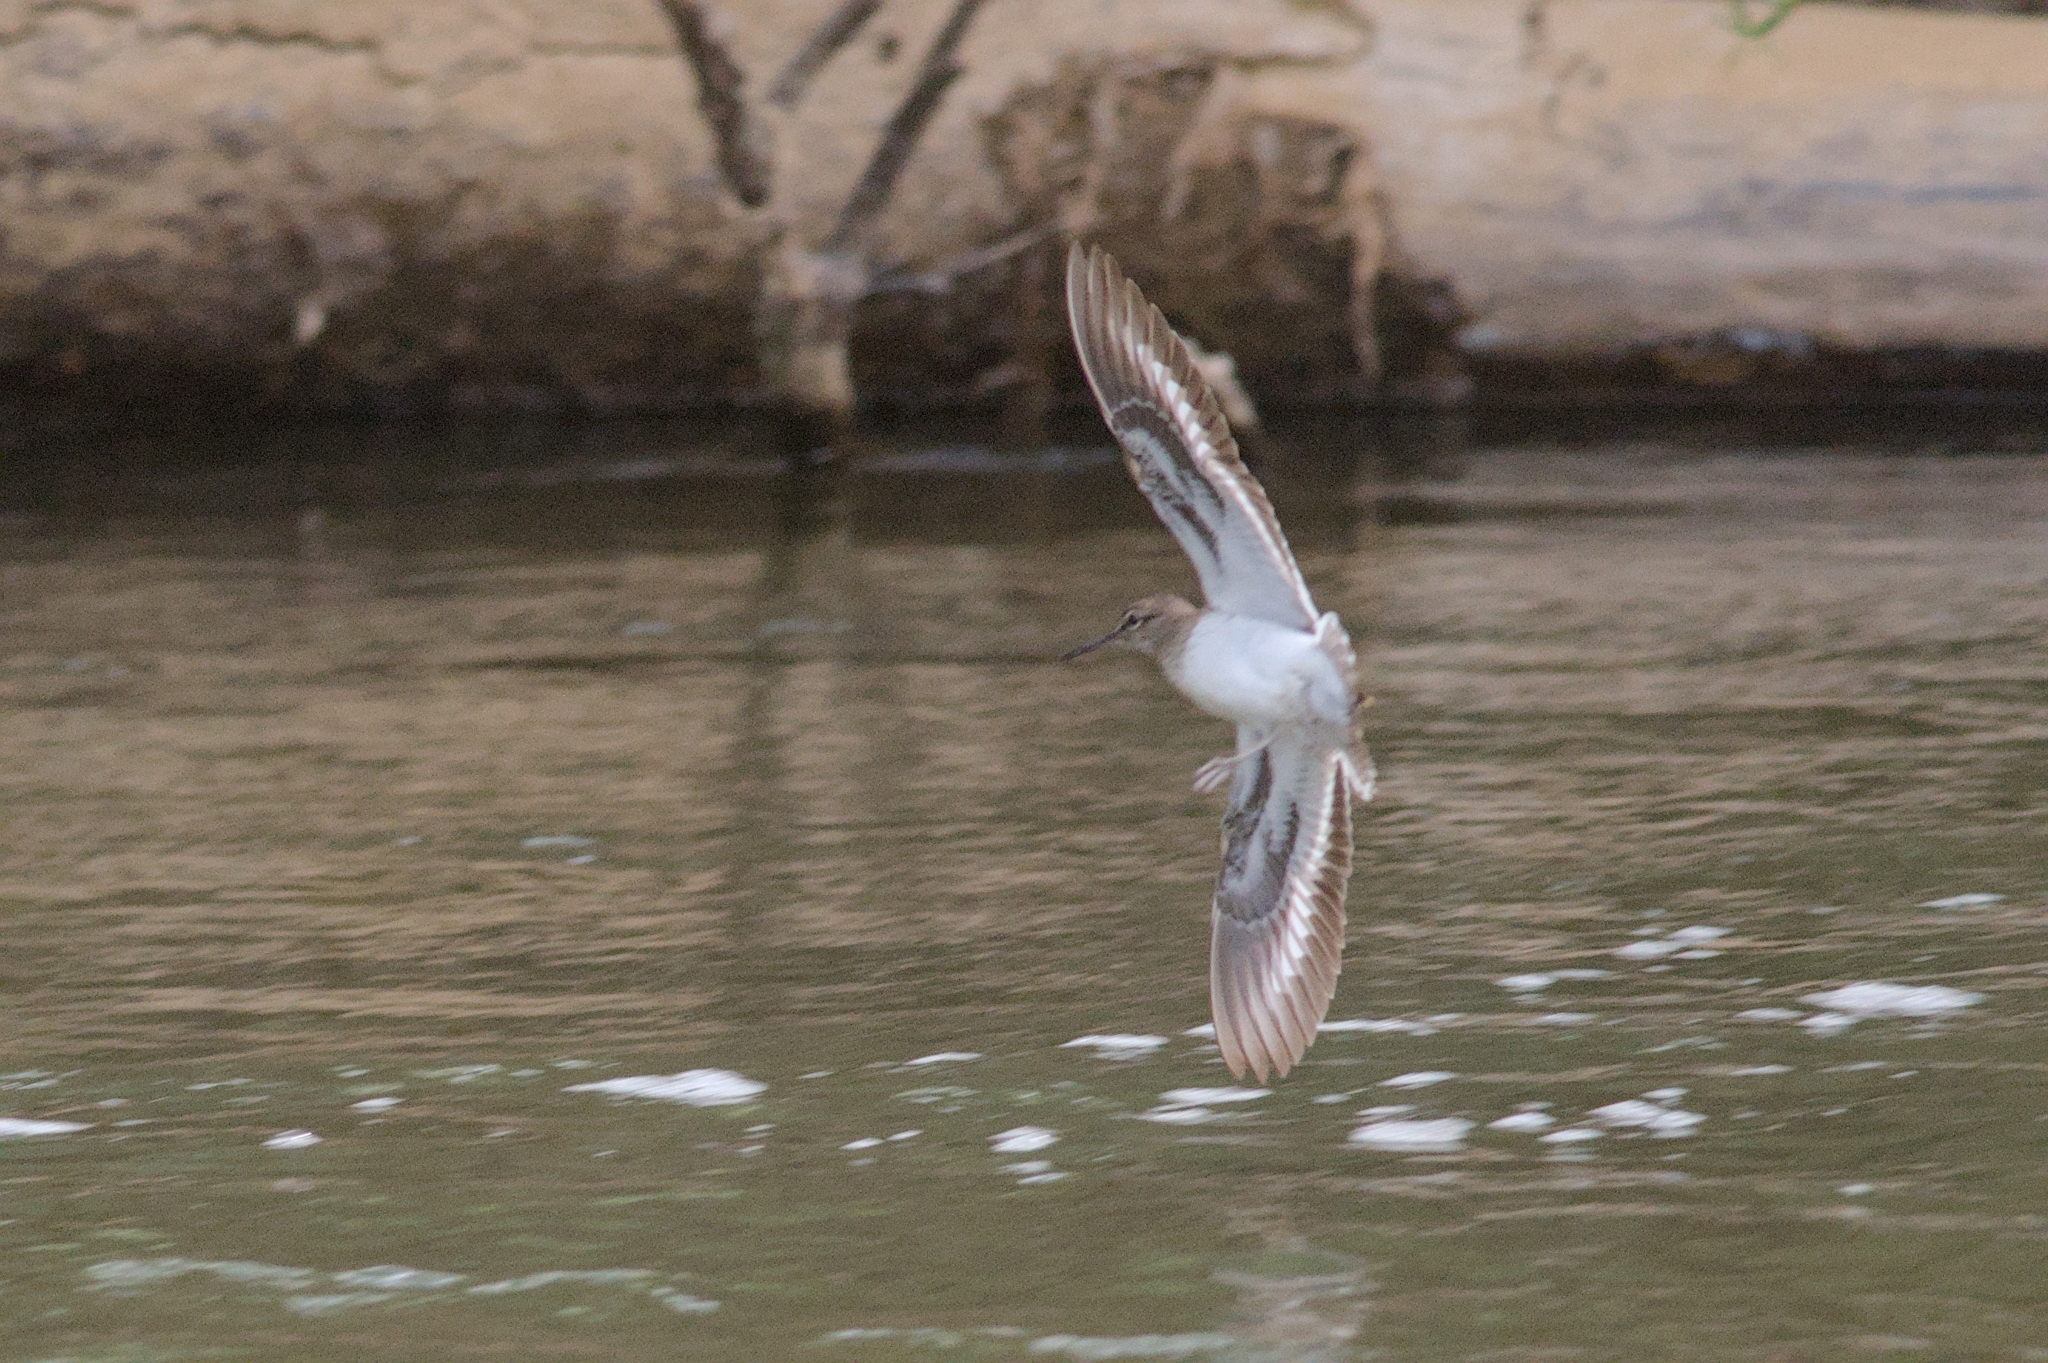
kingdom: Animalia
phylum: Chordata
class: Aves
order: Charadriiformes
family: Scolopacidae
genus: Actitis
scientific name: Actitis hypoleucos
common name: Common sandpiper
